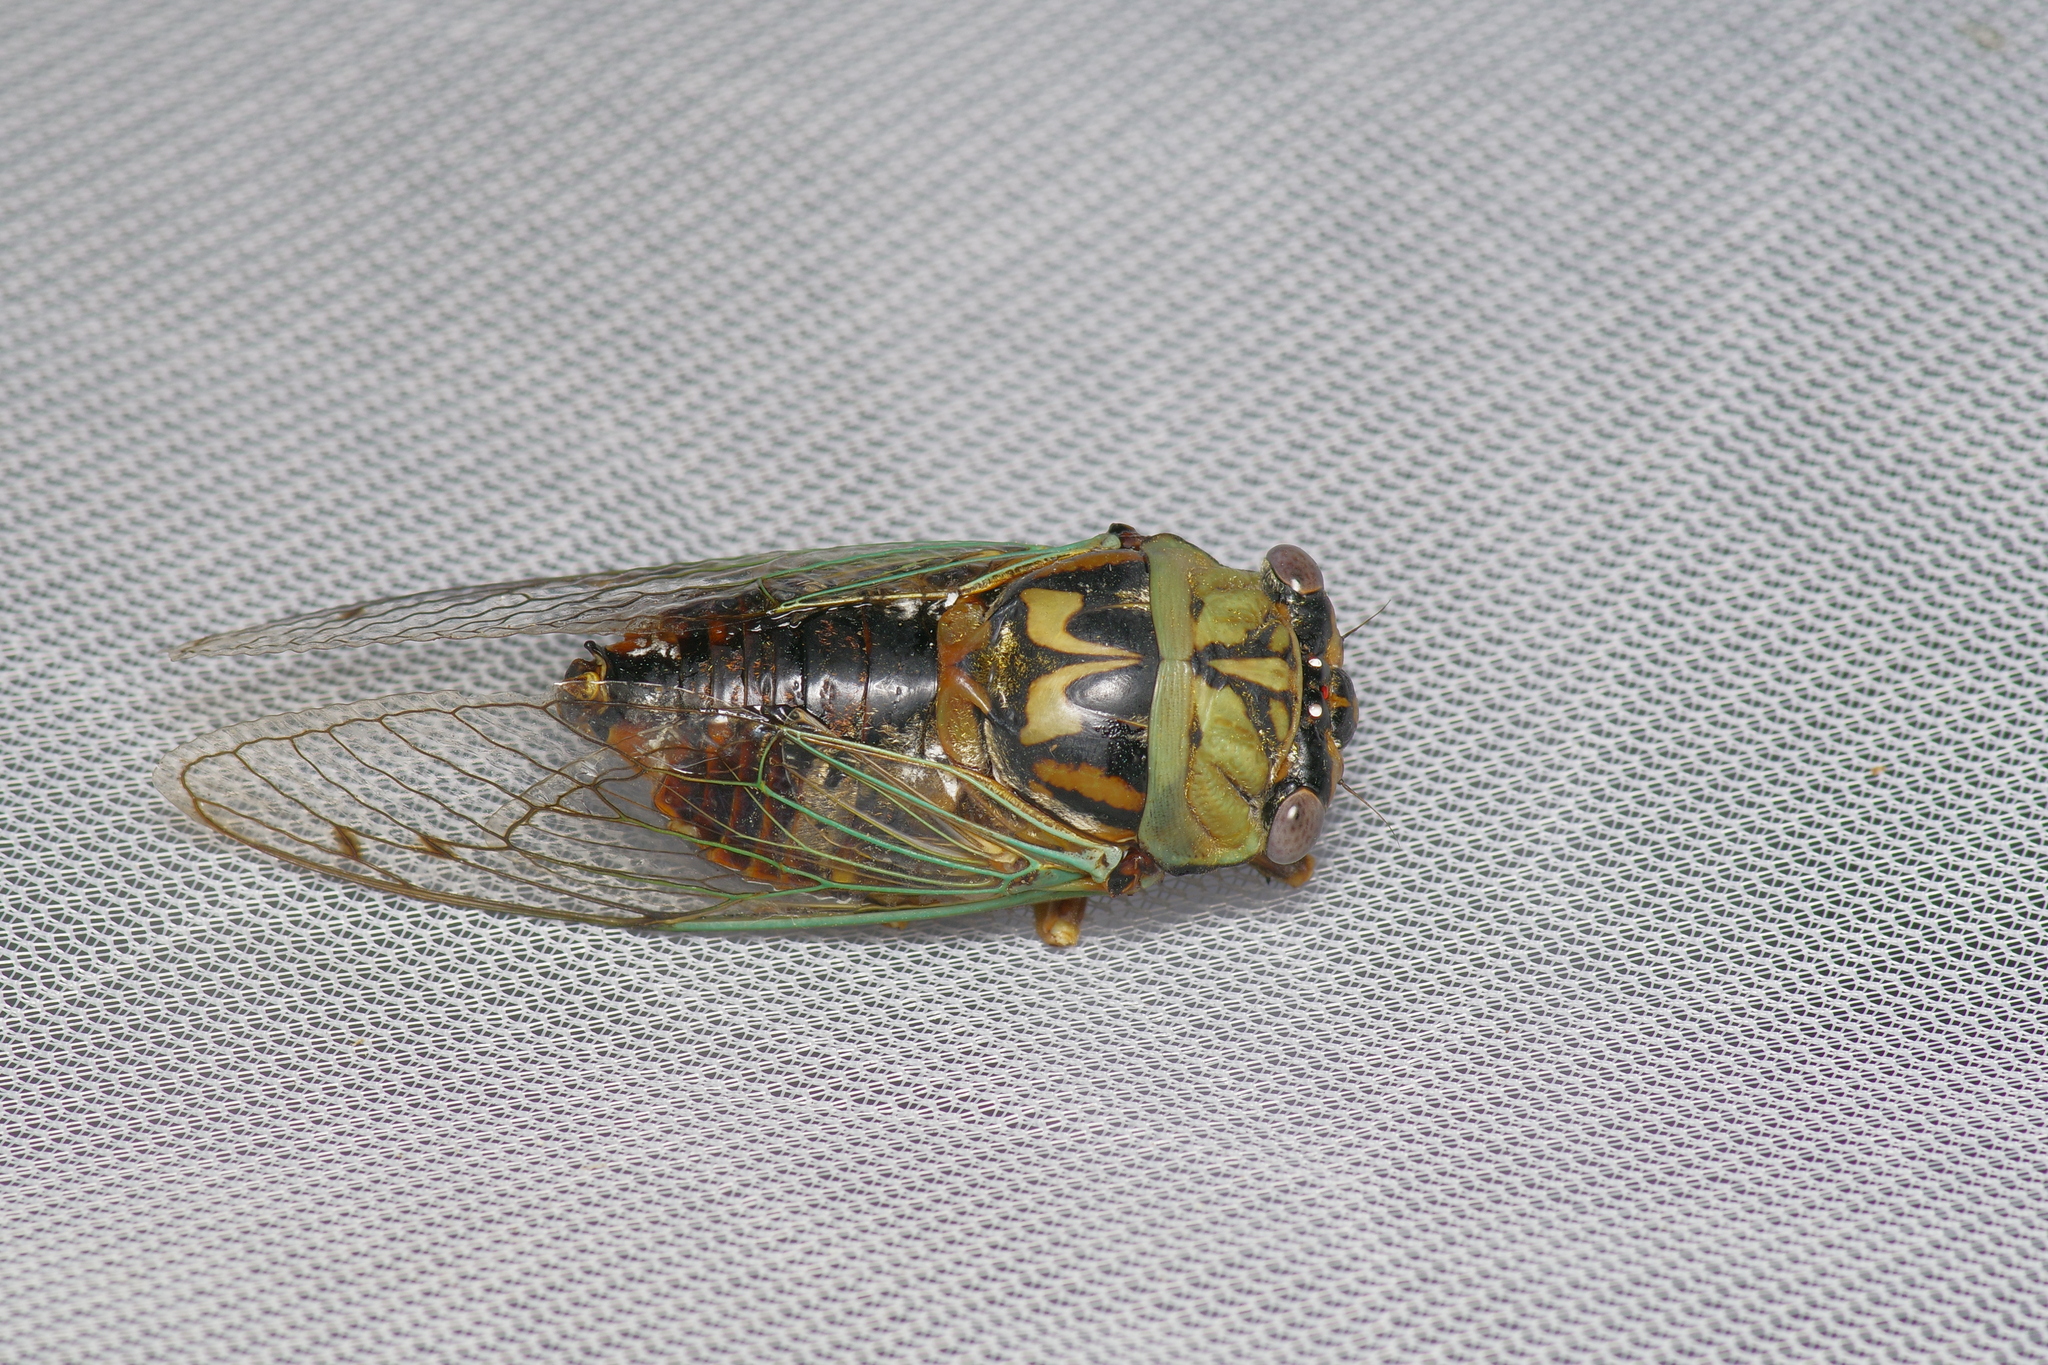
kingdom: Animalia
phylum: Arthropoda
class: Insecta
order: Hemiptera
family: Cicadidae
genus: Megatibicen
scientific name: Megatibicen resh
